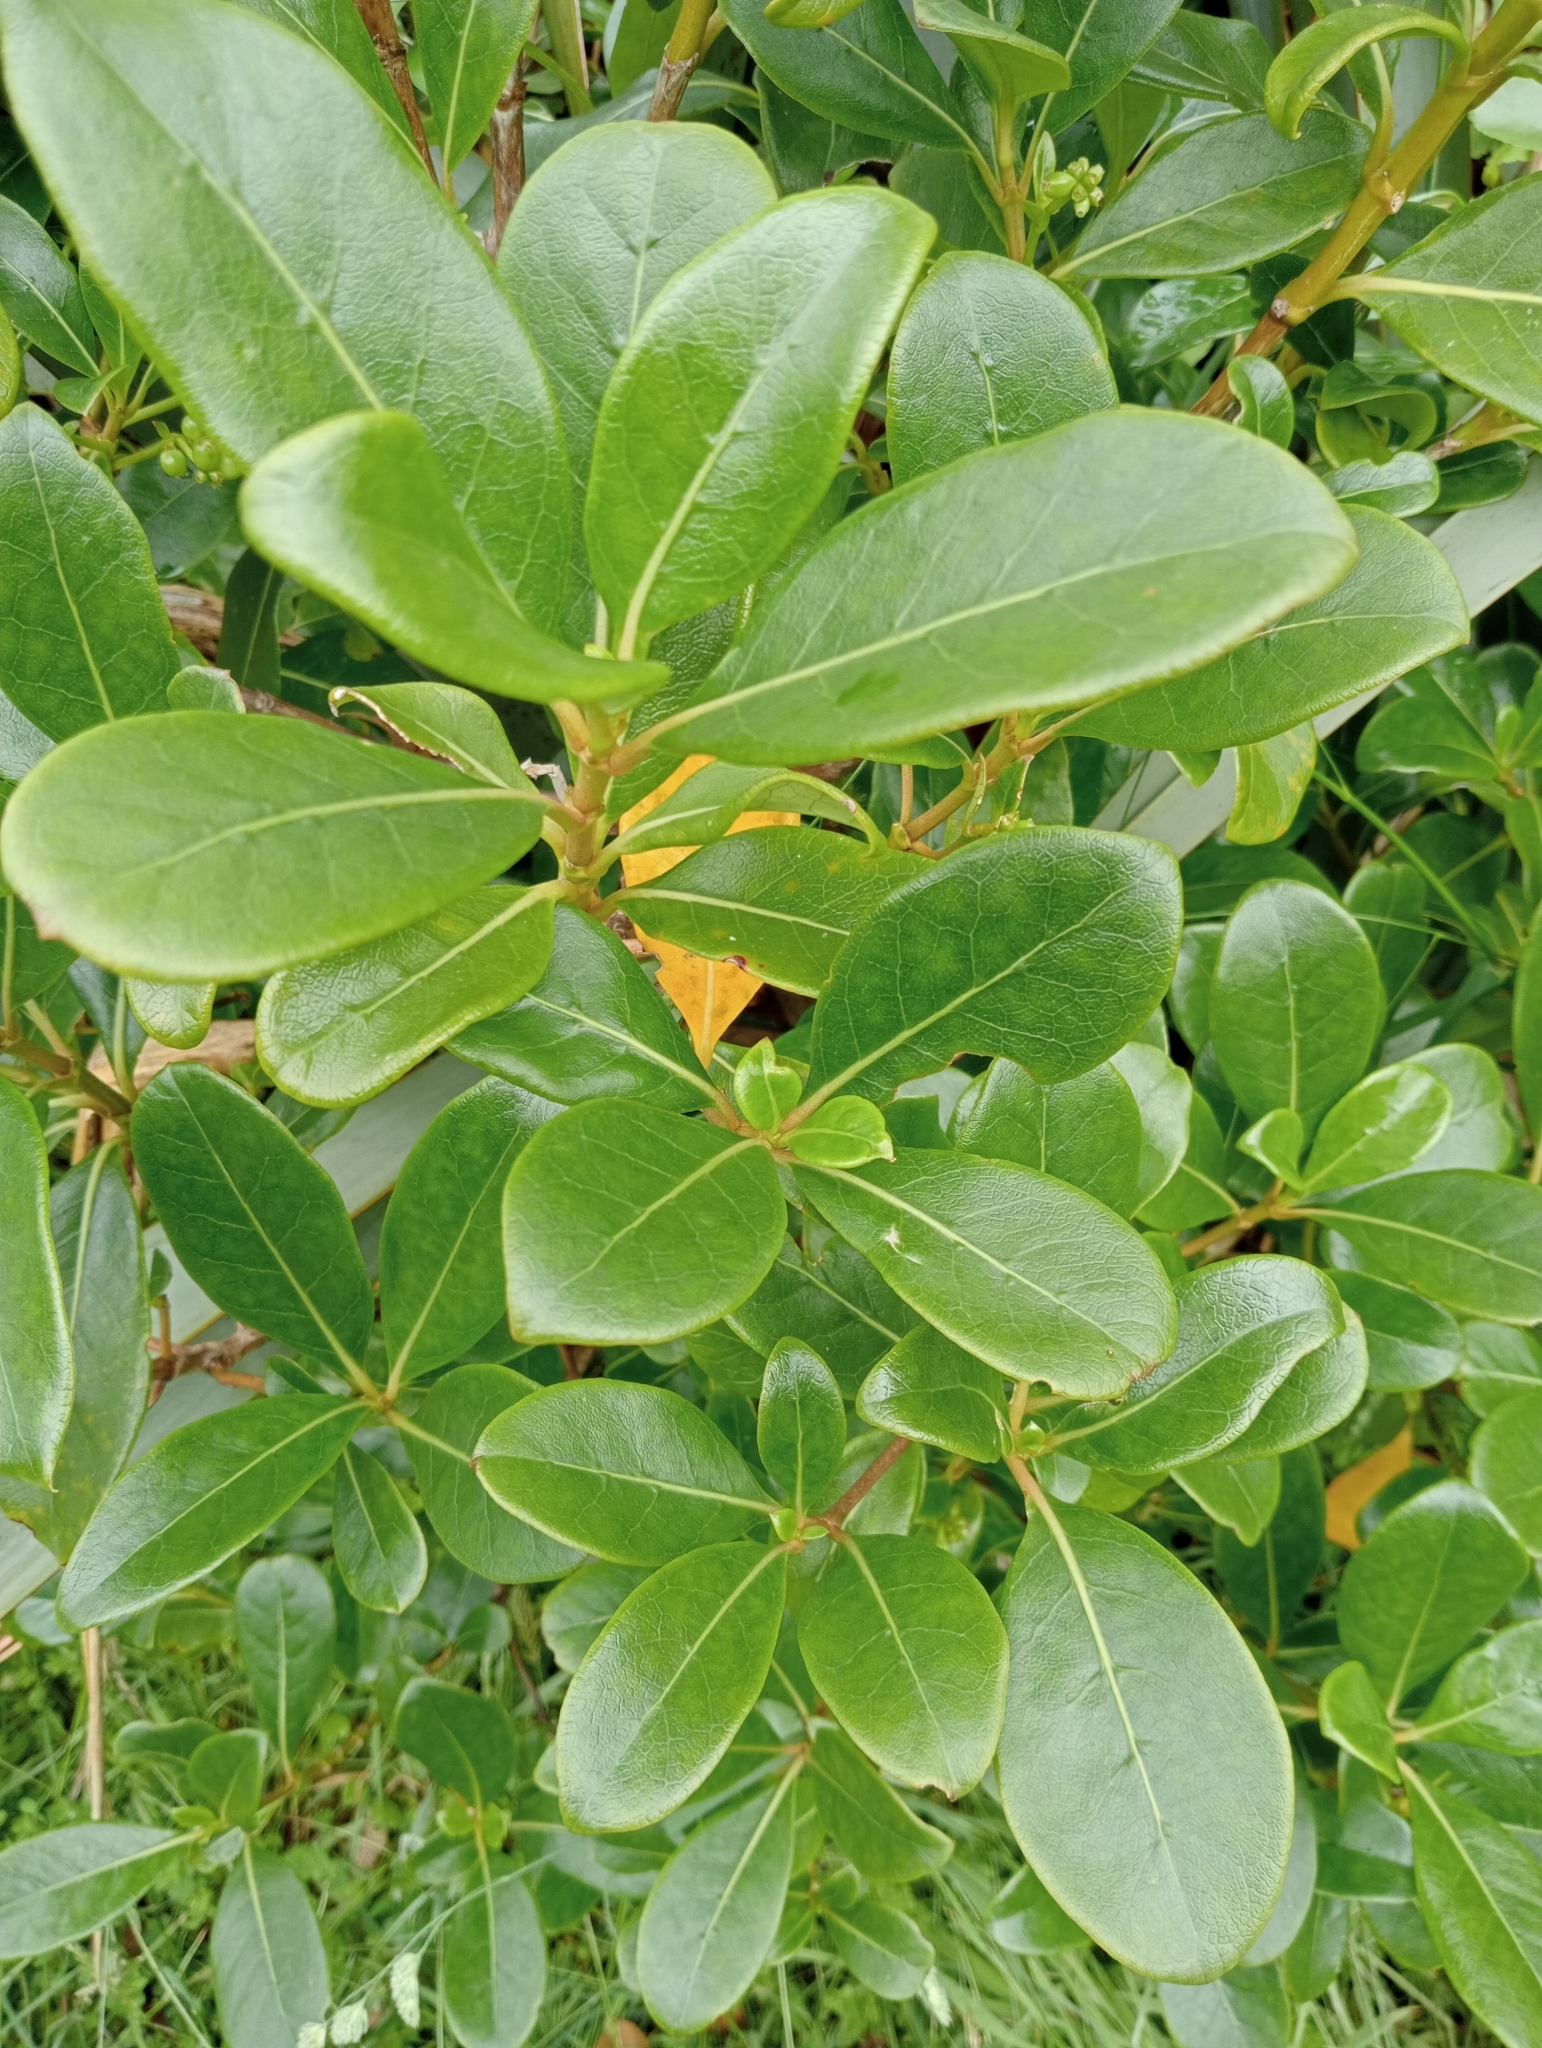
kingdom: Plantae
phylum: Tracheophyta
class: Magnoliopsida
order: Gentianales
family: Rubiaceae
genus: Coprosma
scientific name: Coprosma lucida
